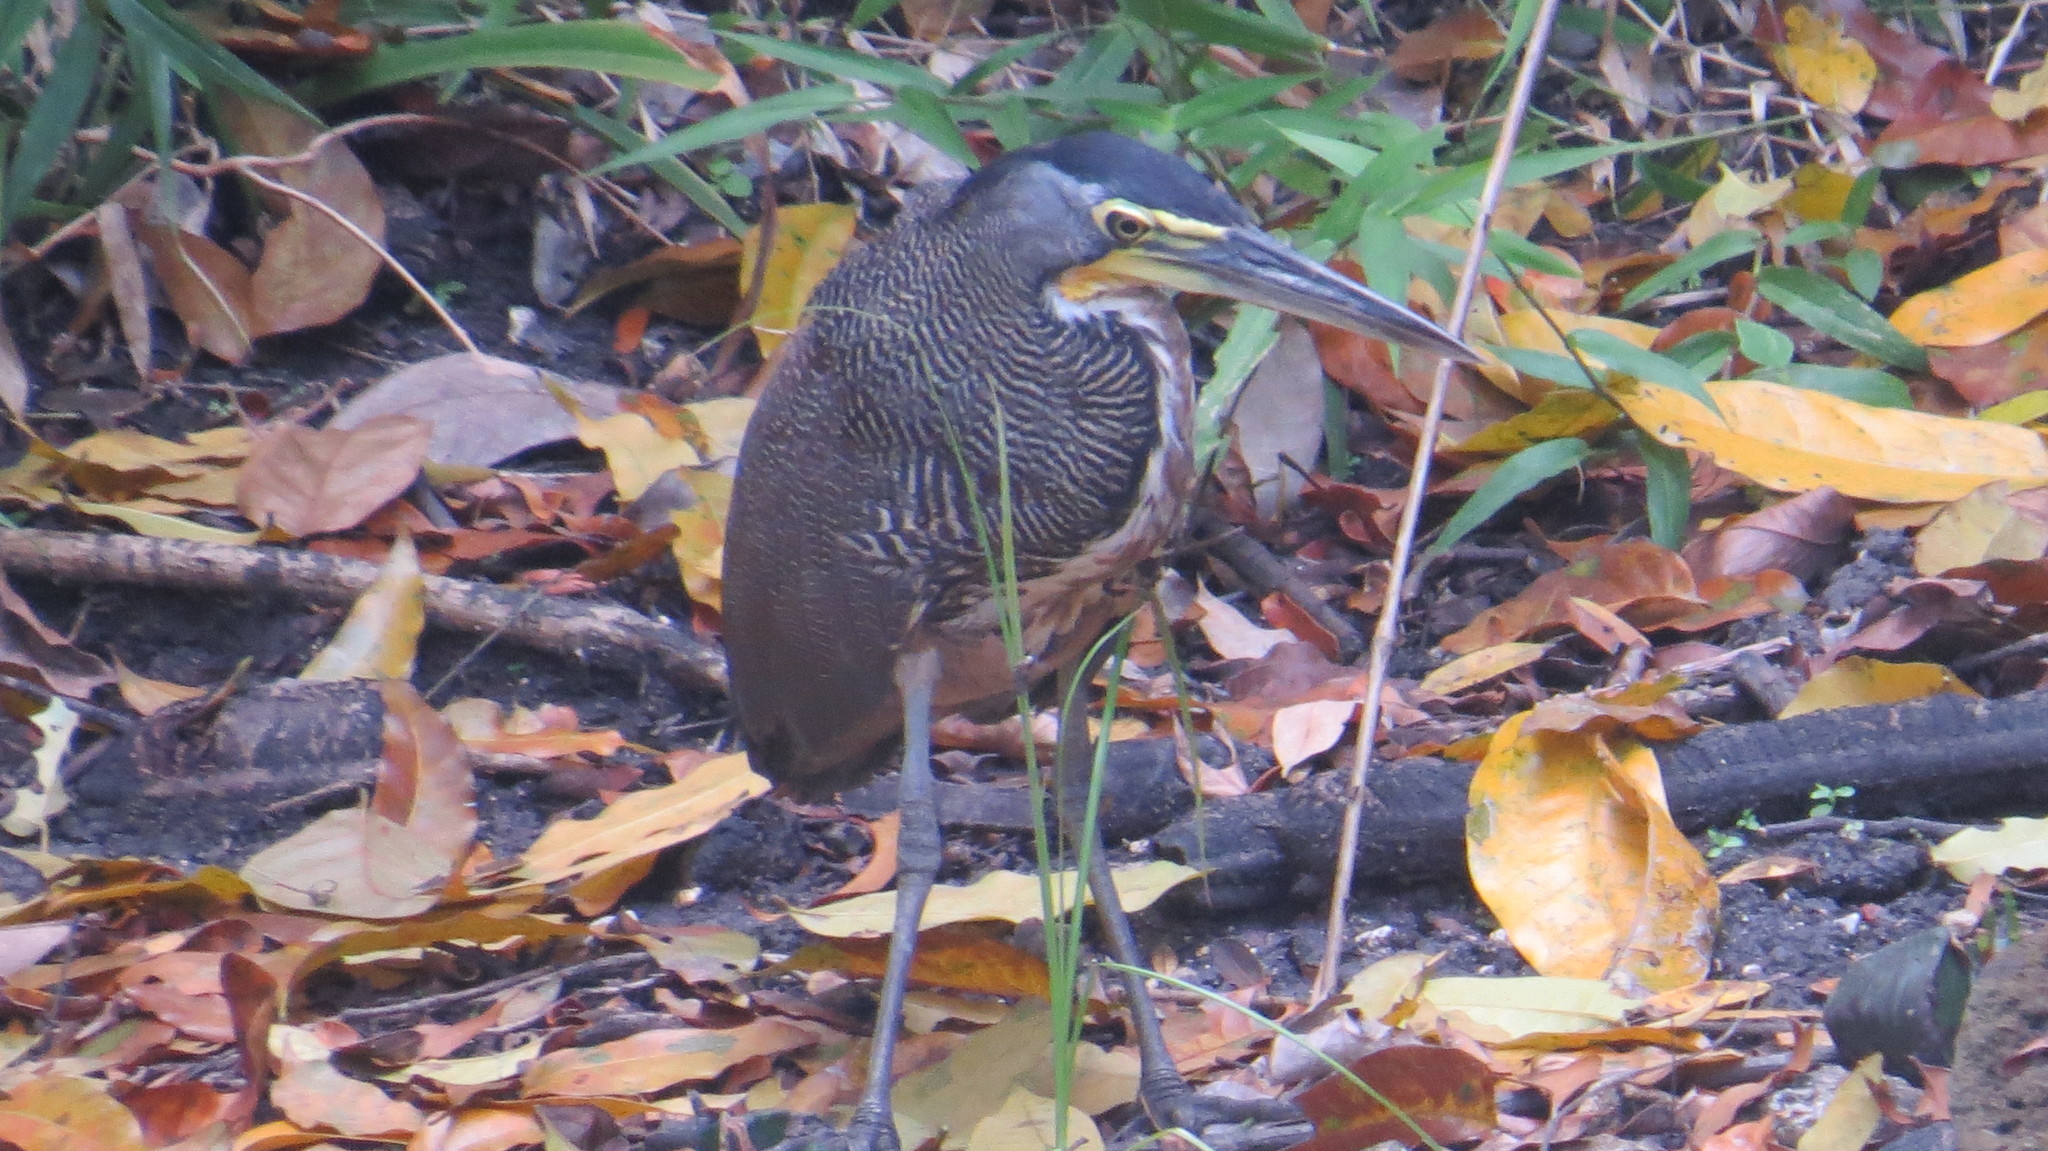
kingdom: Animalia
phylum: Chordata
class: Aves
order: Pelecaniformes
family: Ardeidae
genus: Tigrisoma
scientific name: Tigrisoma mexicanum
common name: Bare-throated tiger-heron
